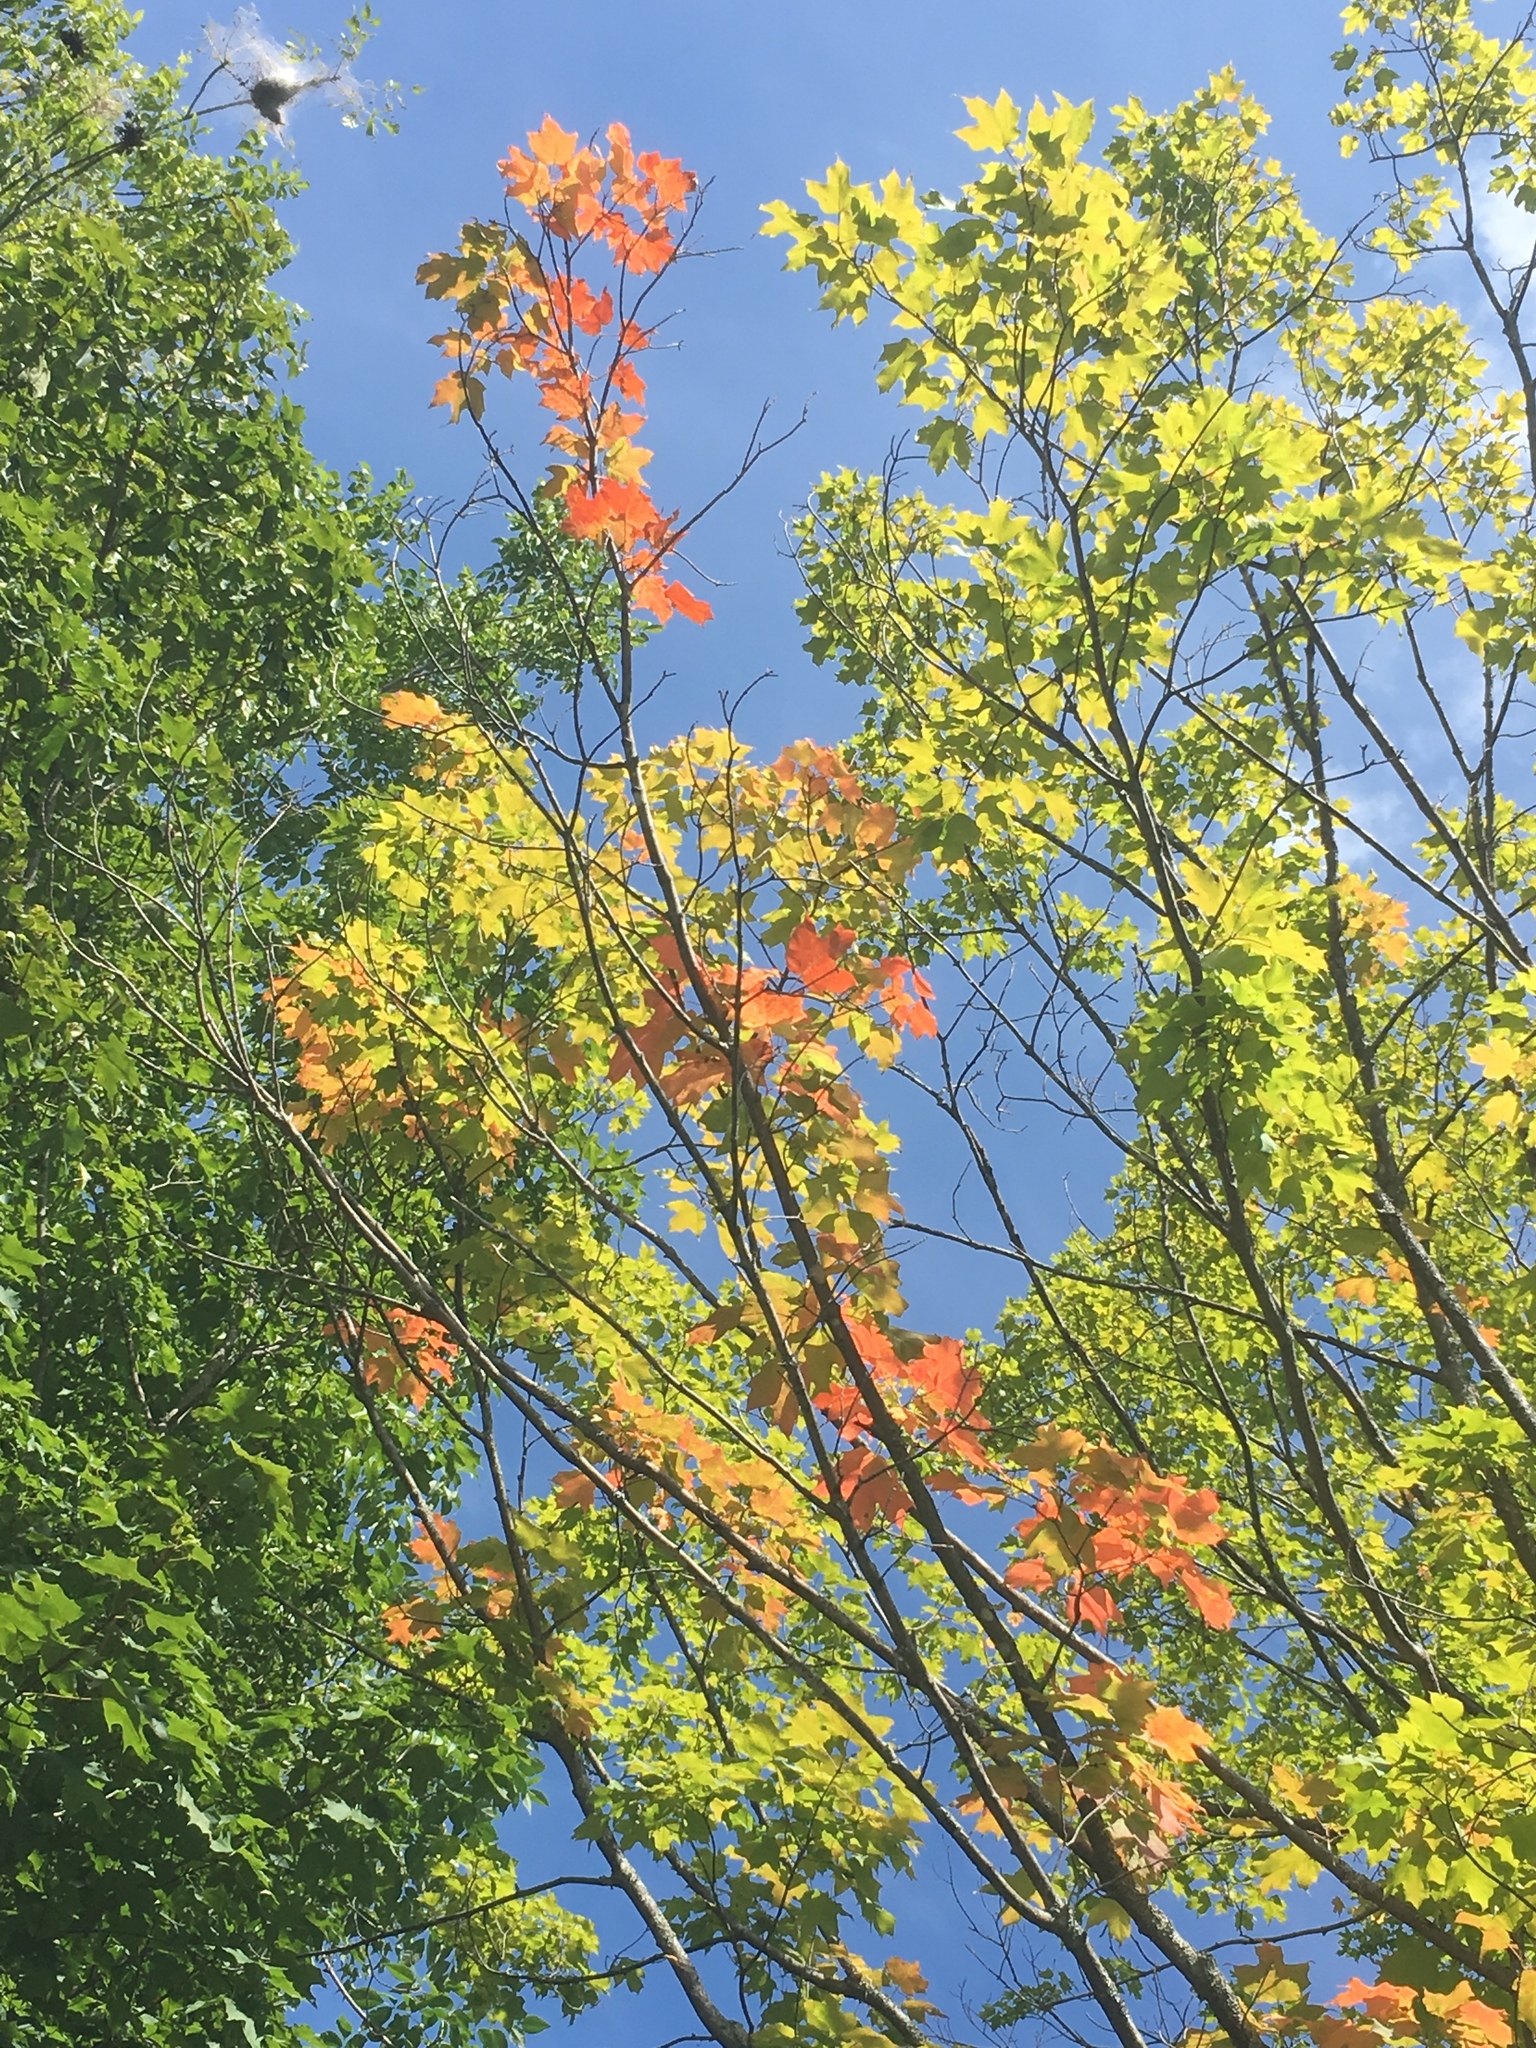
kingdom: Plantae
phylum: Tracheophyta
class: Magnoliopsida
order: Sapindales
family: Sapindaceae
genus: Acer
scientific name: Acer saccharum
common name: Sugar maple
